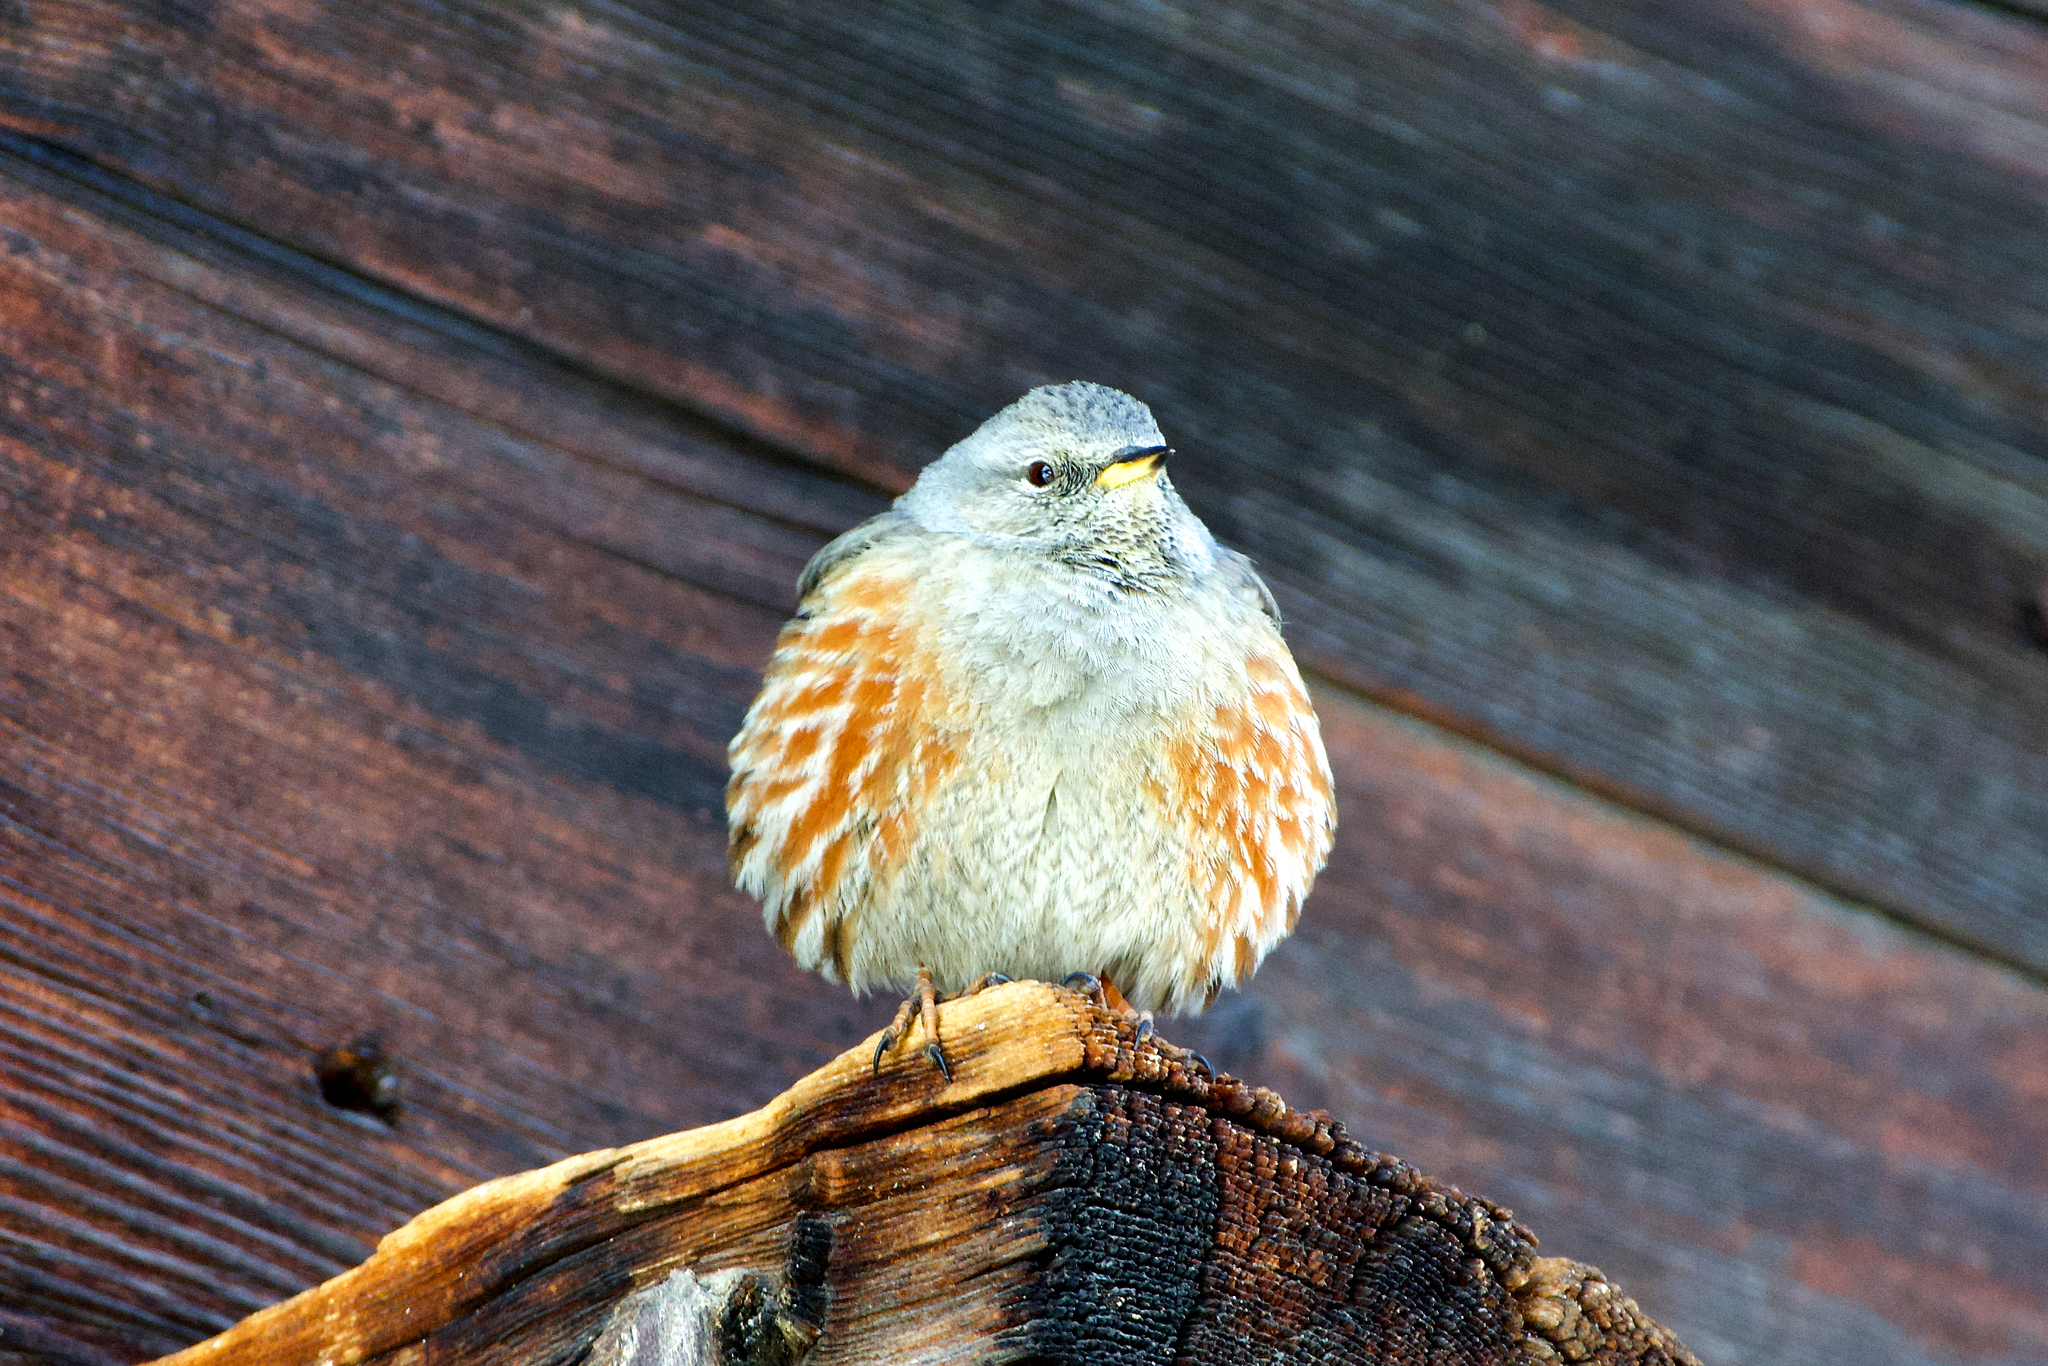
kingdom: Animalia
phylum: Chordata
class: Aves
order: Passeriformes
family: Prunellidae
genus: Prunella
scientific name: Prunella collaris
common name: Alpine accentor
